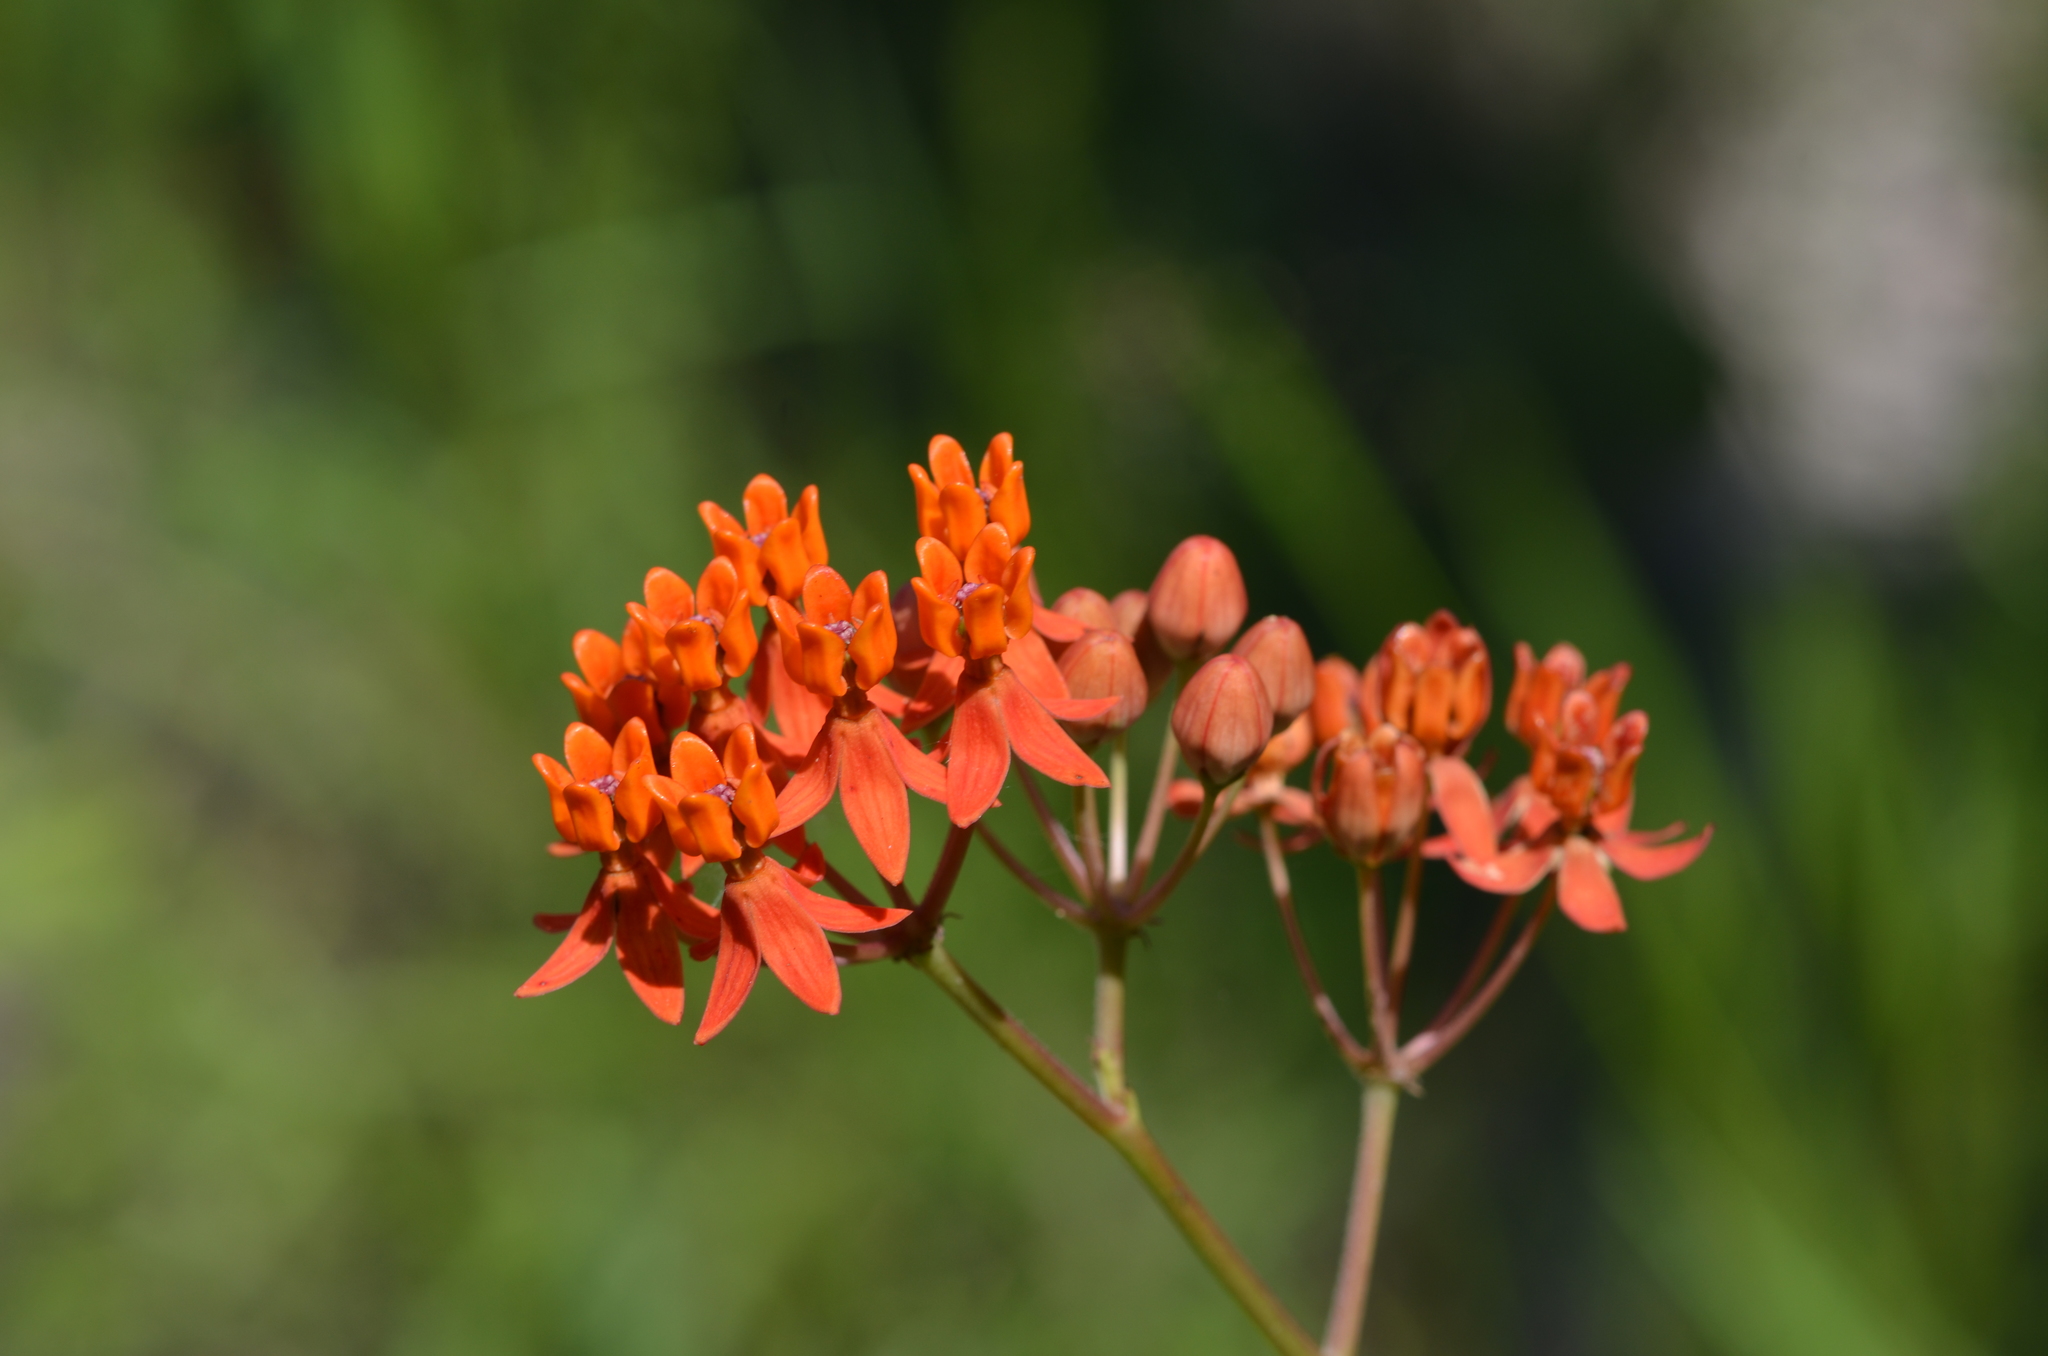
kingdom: Plantae
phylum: Tracheophyta
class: Magnoliopsida
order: Gentianales
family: Apocynaceae
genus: Asclepias
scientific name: Asclepias lanceolata
